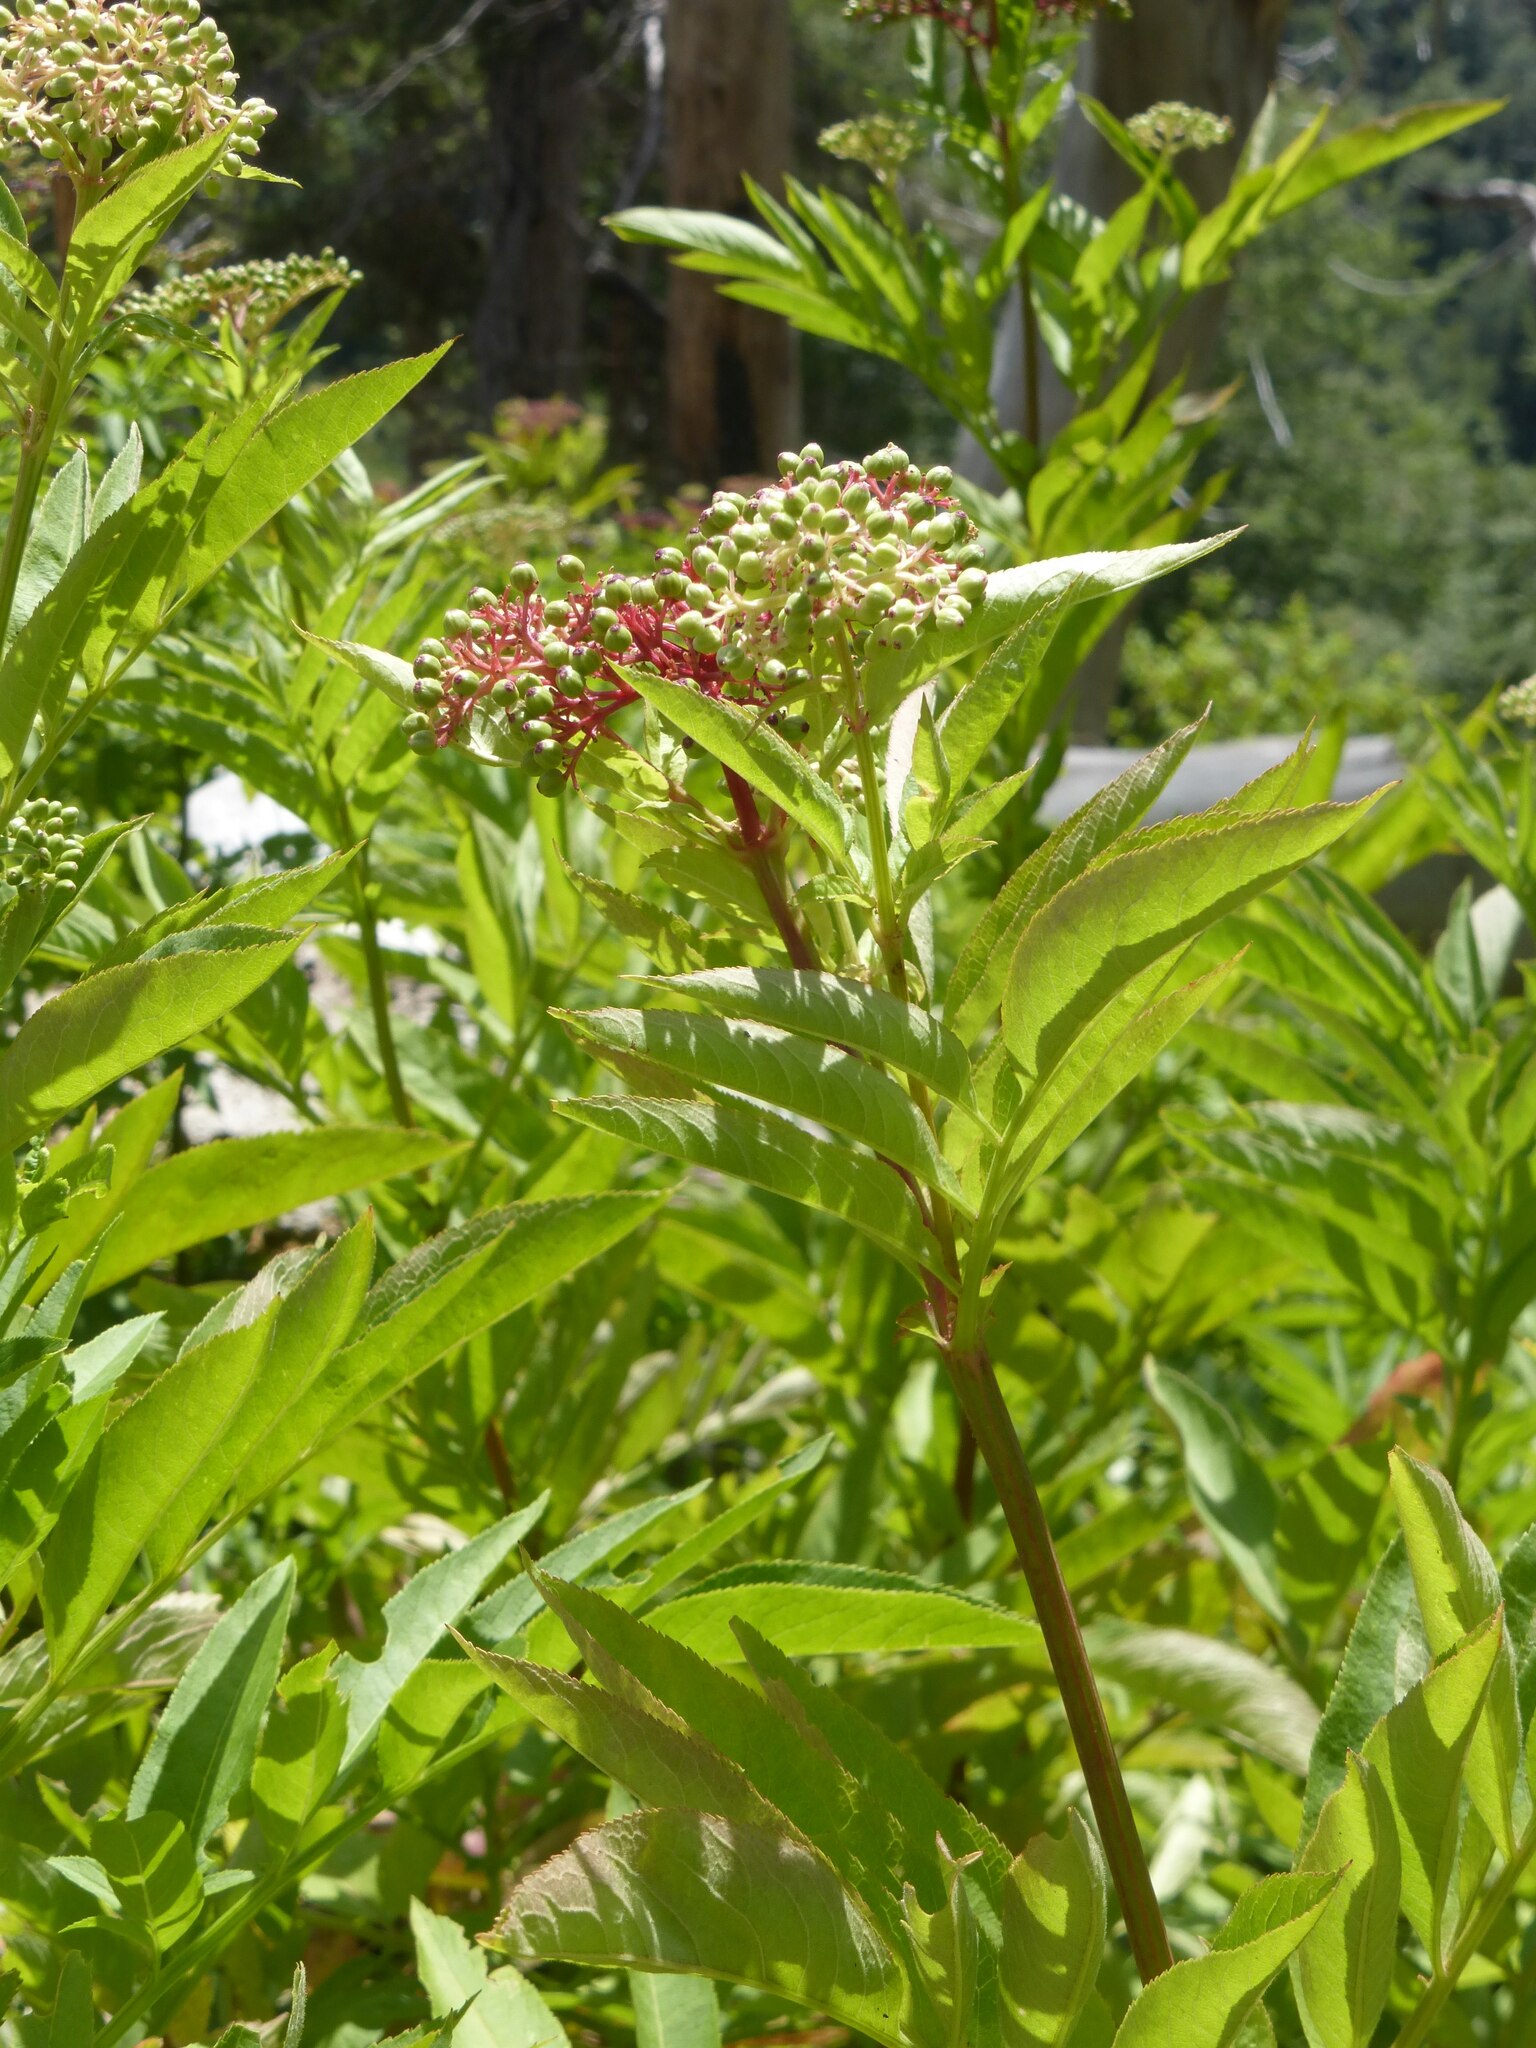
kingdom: Plantae
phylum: Tracheophyta
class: Magnoliopsida
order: Dipsacales
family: Viburnaceae
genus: Sambucus
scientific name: Sambucus ebulus
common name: Dwarf elder
